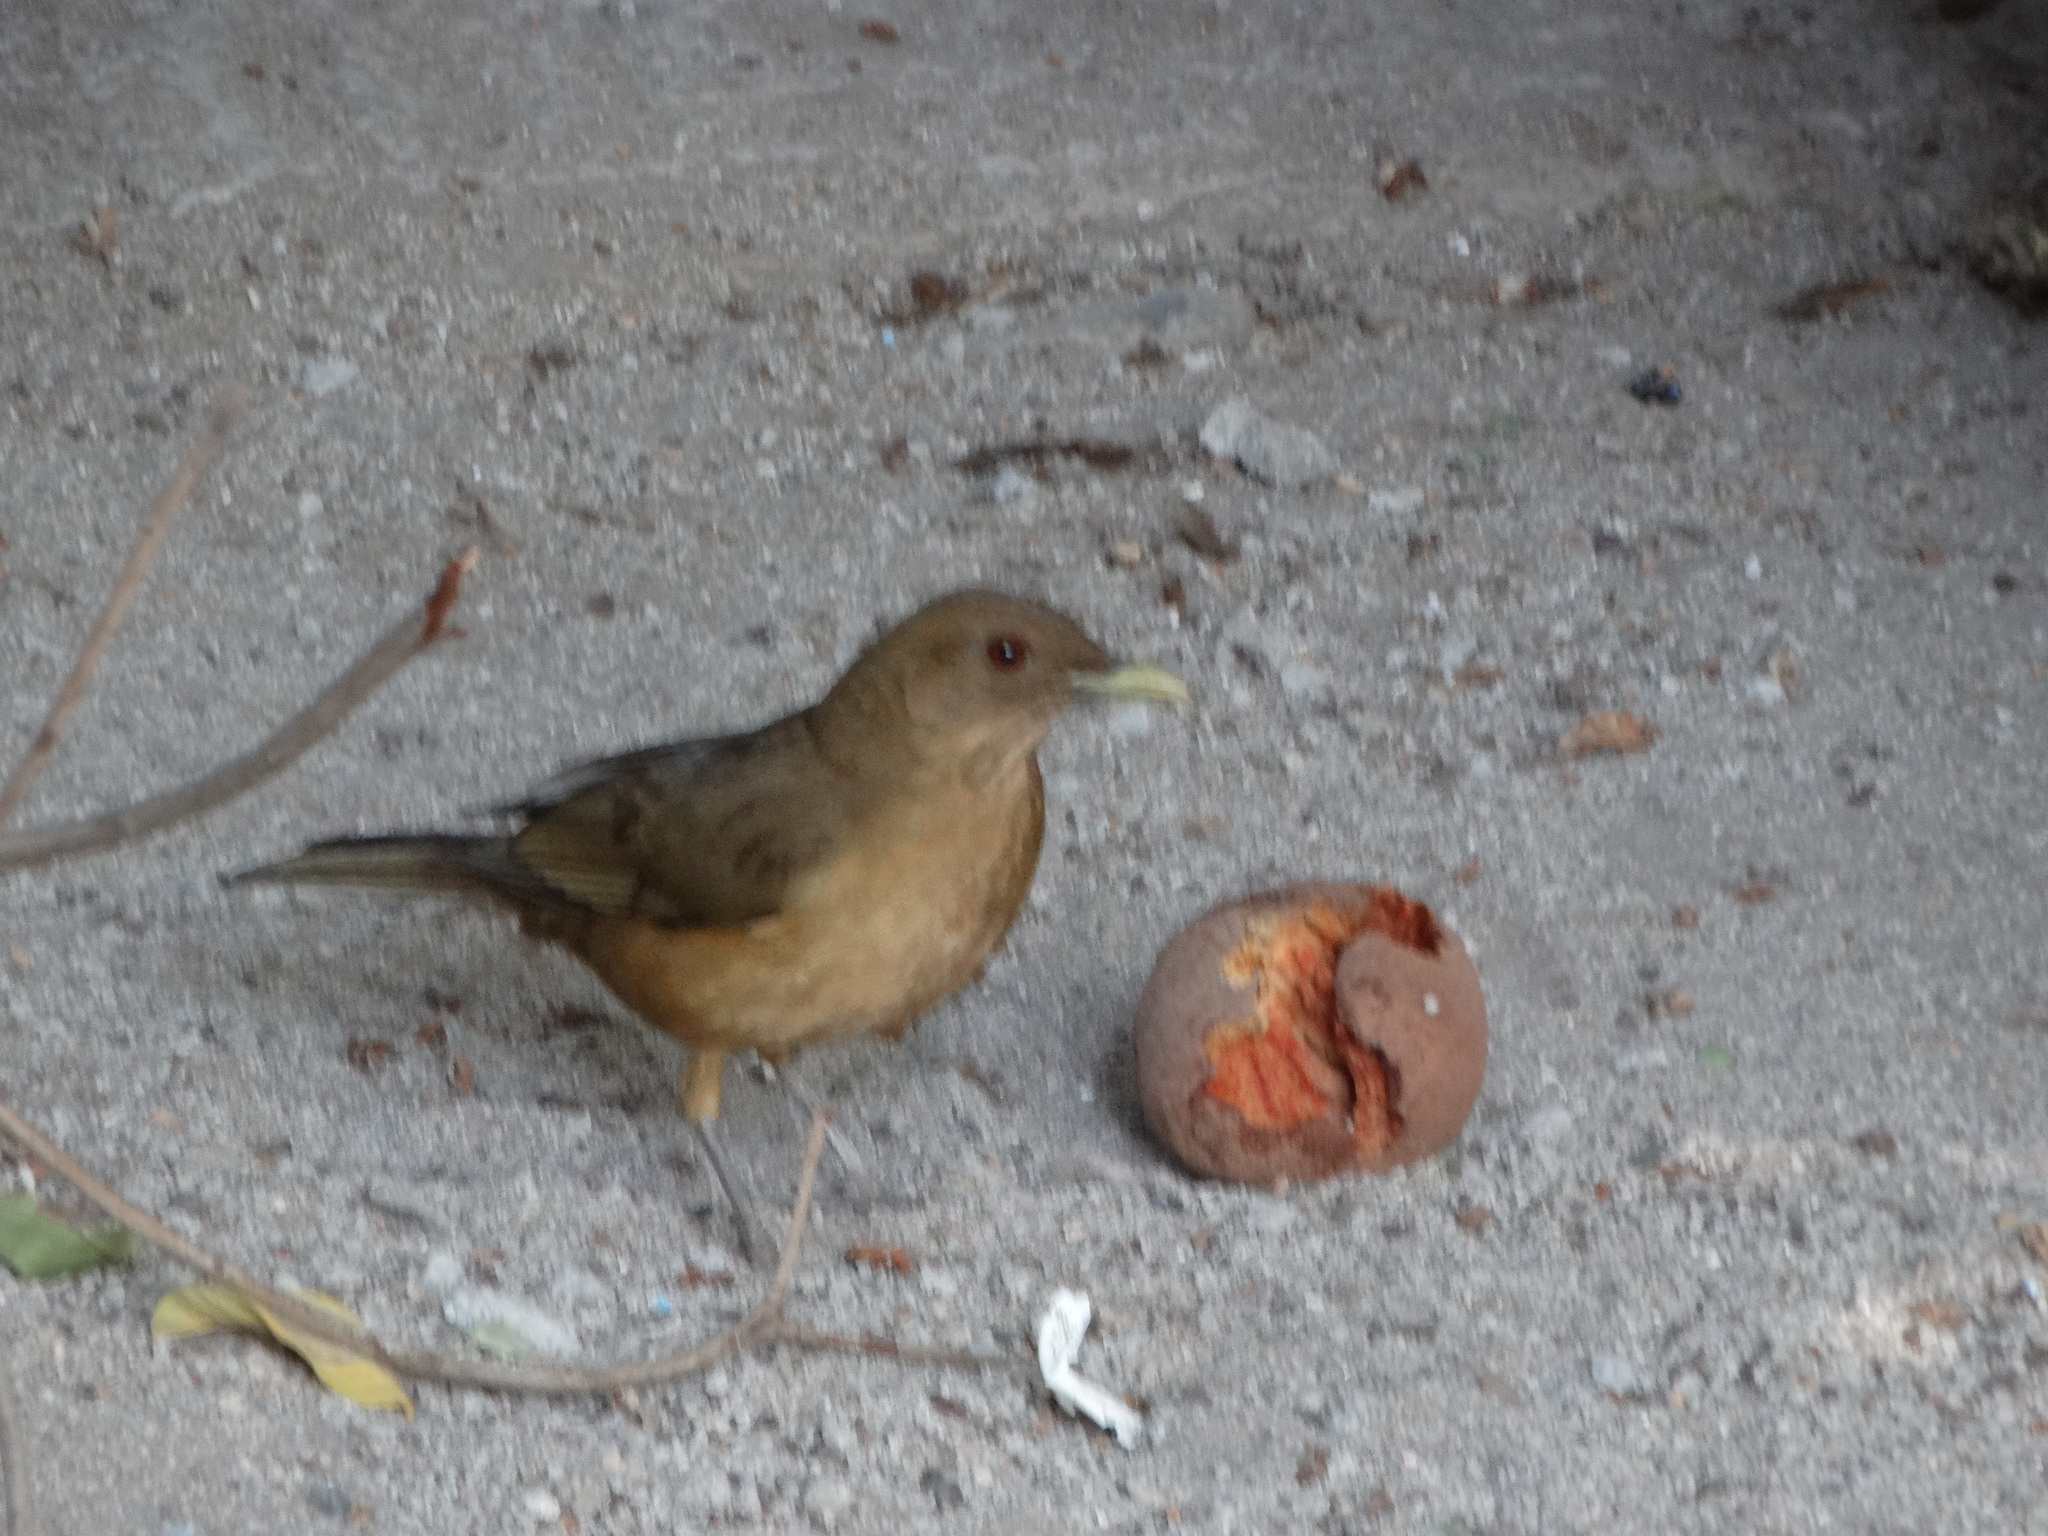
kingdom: Animalia
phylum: Chordata
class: Aves
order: Passeriformes
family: Turdidae
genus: Turdus
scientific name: Turdus grayi
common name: Clay-colored thrush
